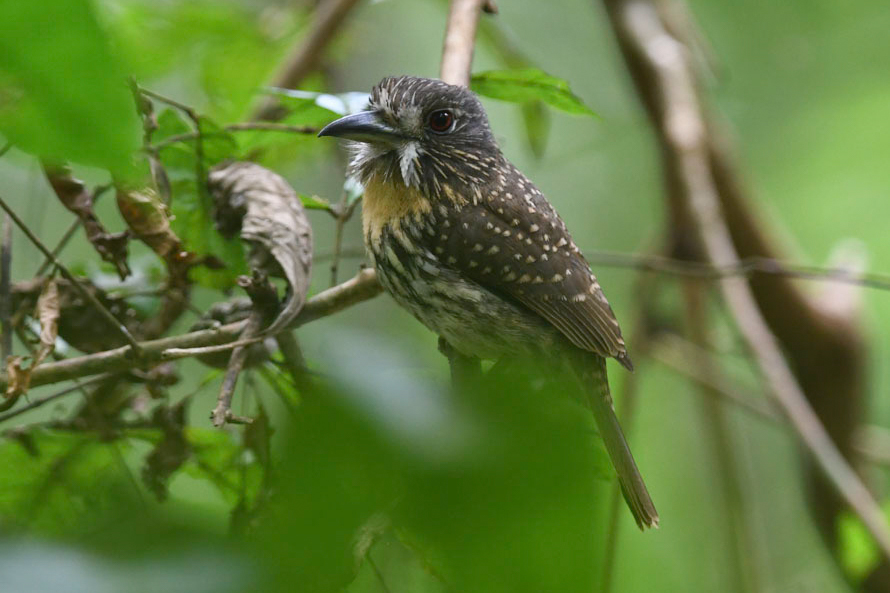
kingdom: Animalia
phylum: Chordata
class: Aves
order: Piciformes
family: Bucconidae
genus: Malacoptila
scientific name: Malacoptila panamensis
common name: White-whiskered puffbird
